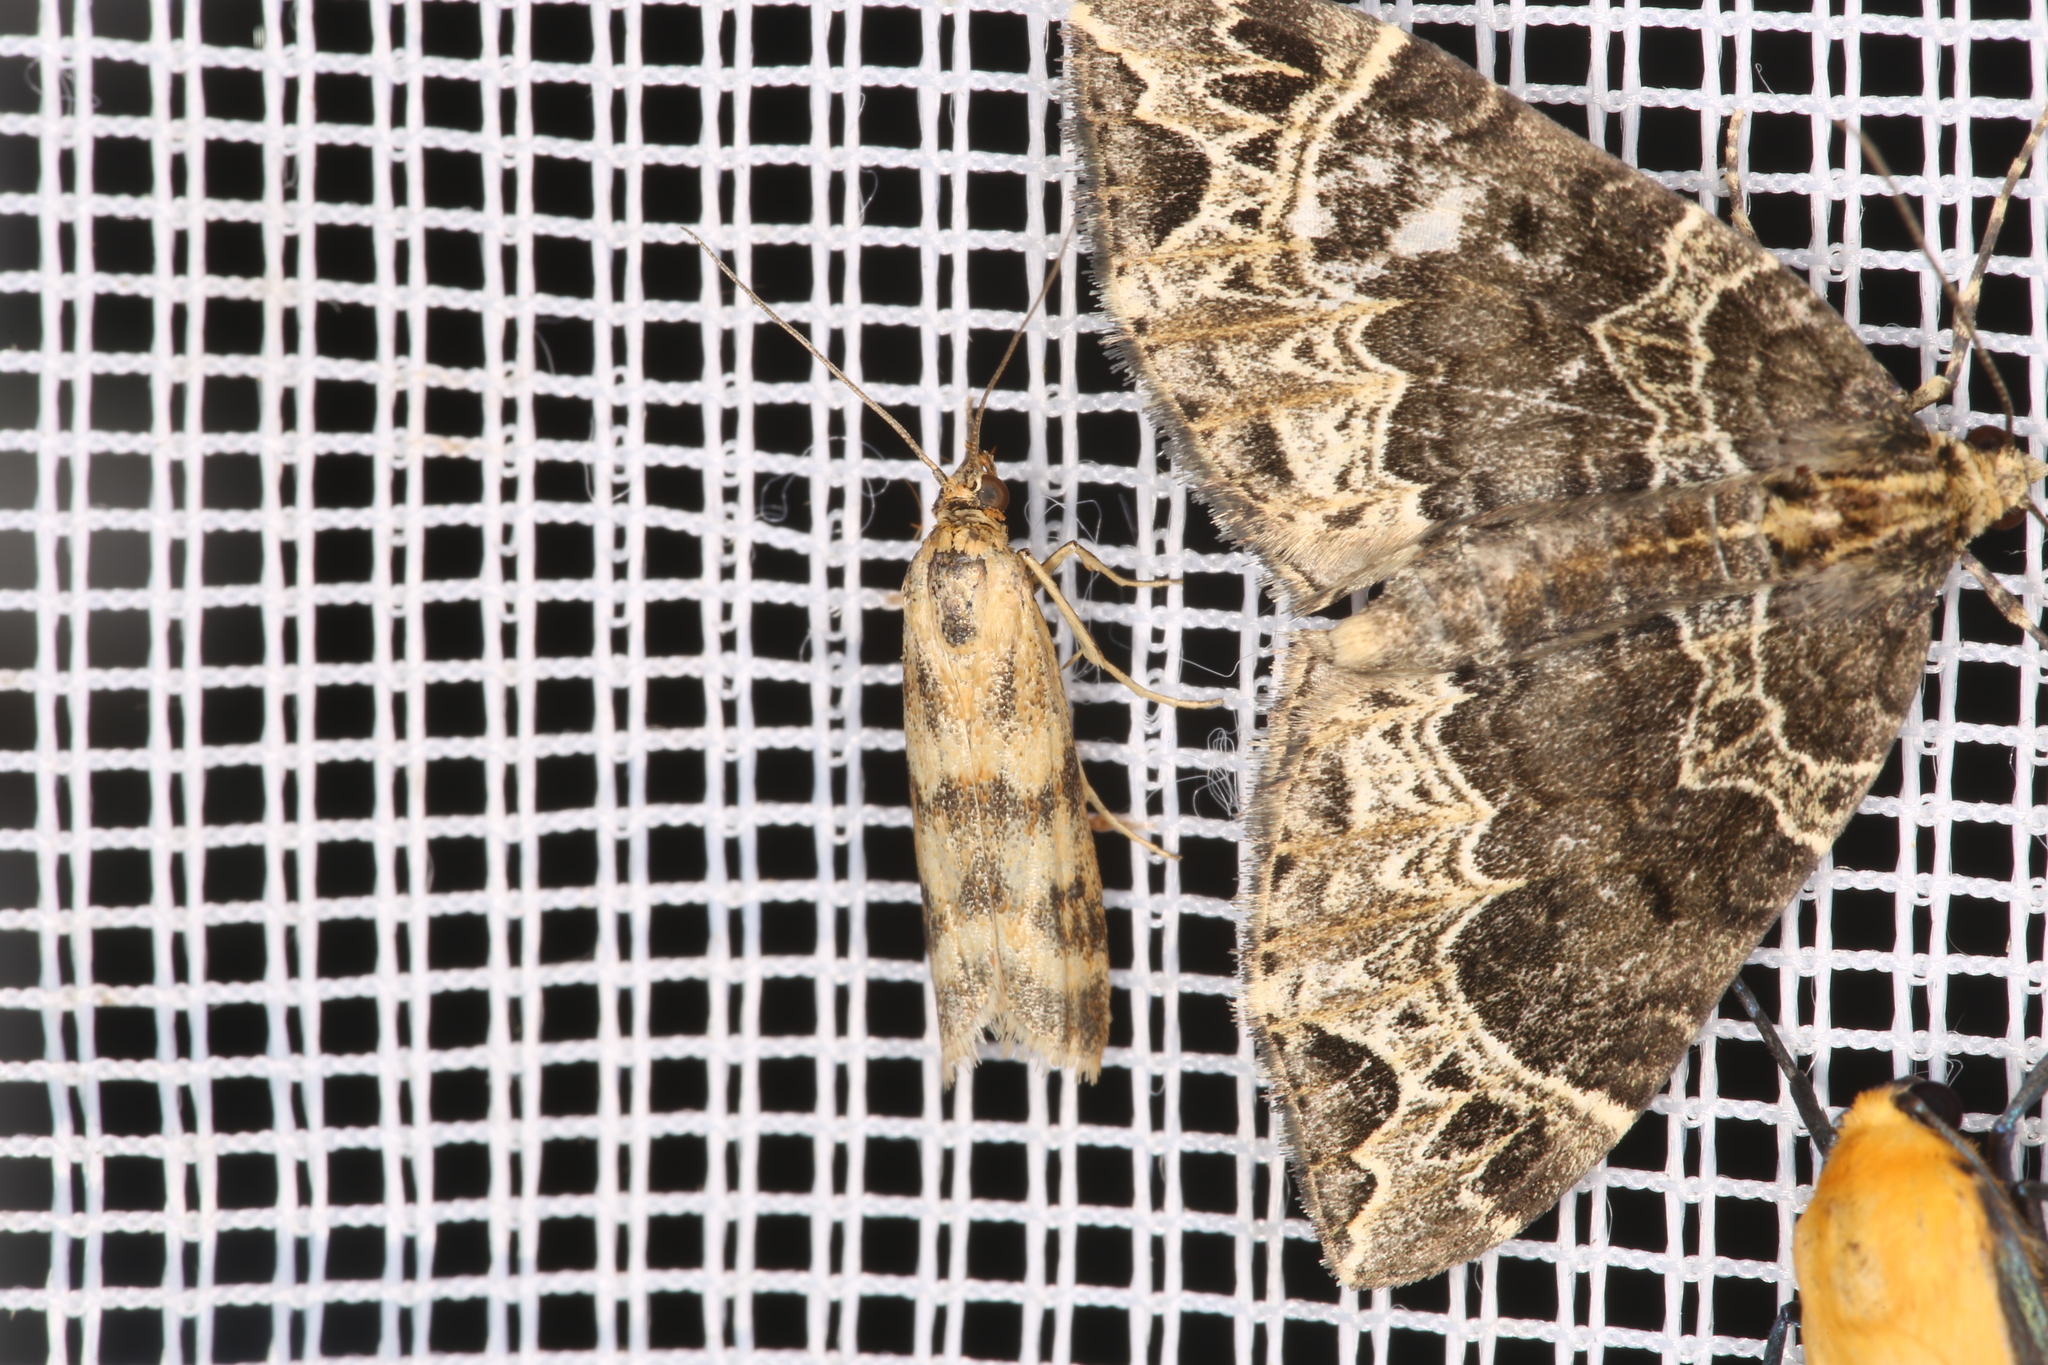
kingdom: Animalia
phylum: Arthropoda
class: Insecta
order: Lepidoptera
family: Pyralidae
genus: Homoeosoma
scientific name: Homoeosoma sinuella
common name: Twin-barred knot-horn
